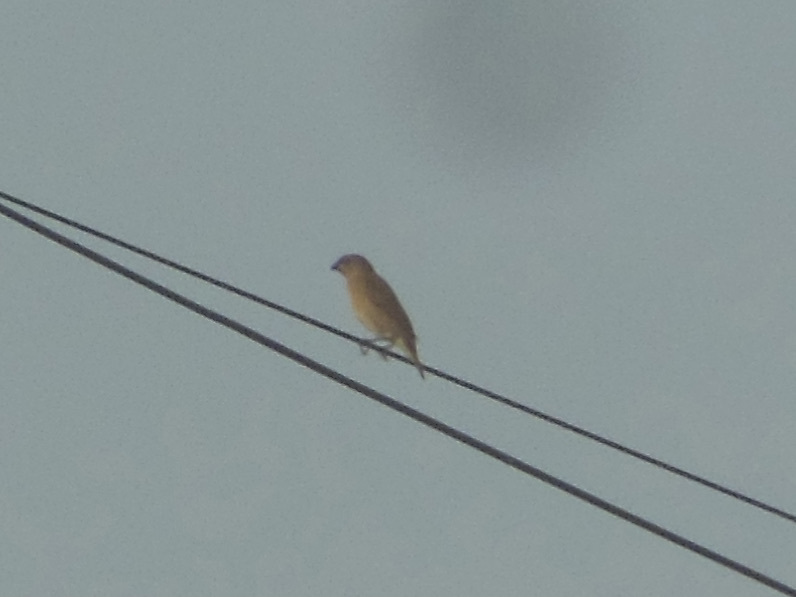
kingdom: Animalia
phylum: Chordata
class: Aves
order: Passeriformes
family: Estrildidae
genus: Lonchura
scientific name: Lonchura punctulata
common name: Scaly-breasted munia
